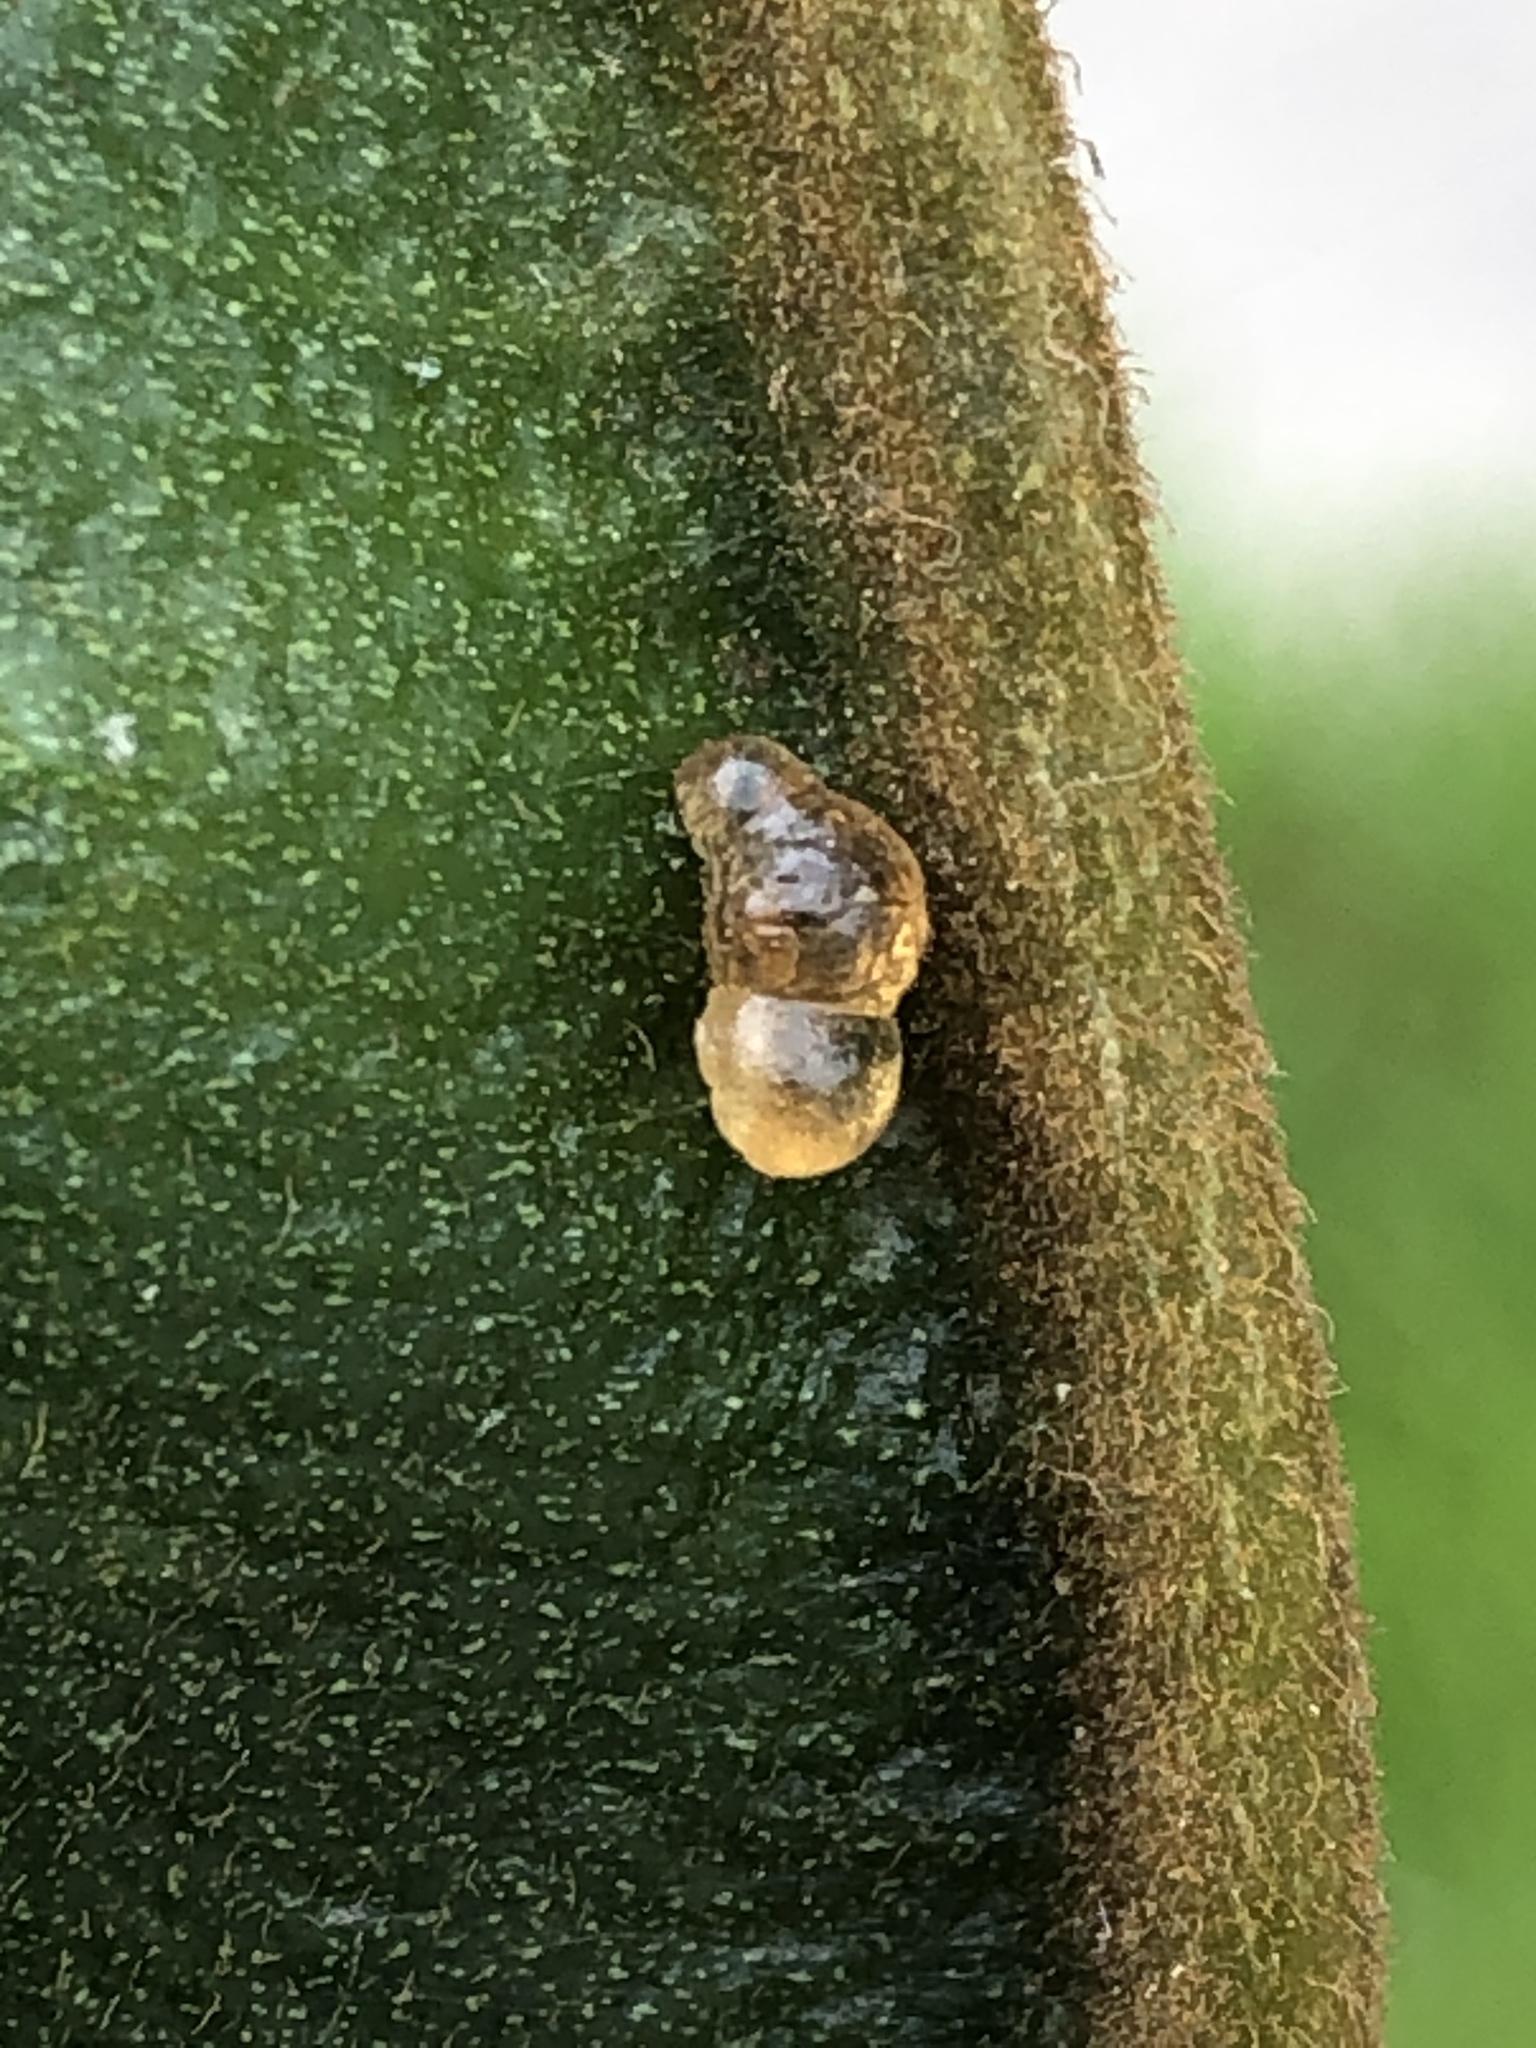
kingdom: Animalia
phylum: Arthropoda
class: Insecta
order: Lepidoptera
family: Lycaenidae
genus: Melanis
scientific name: Melanis
